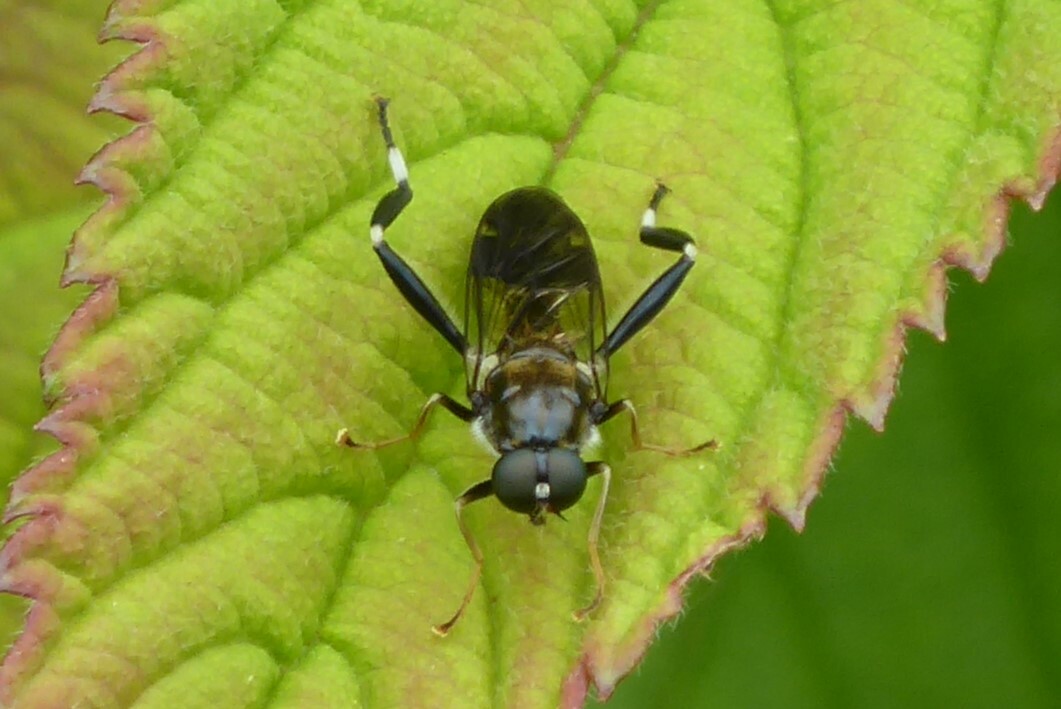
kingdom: Animalia
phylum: Arthropoda
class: Insecta
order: Diptera
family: Stratiomyidae
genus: Exaireta
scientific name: Exaireta spinigera
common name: Blue soldier fly
